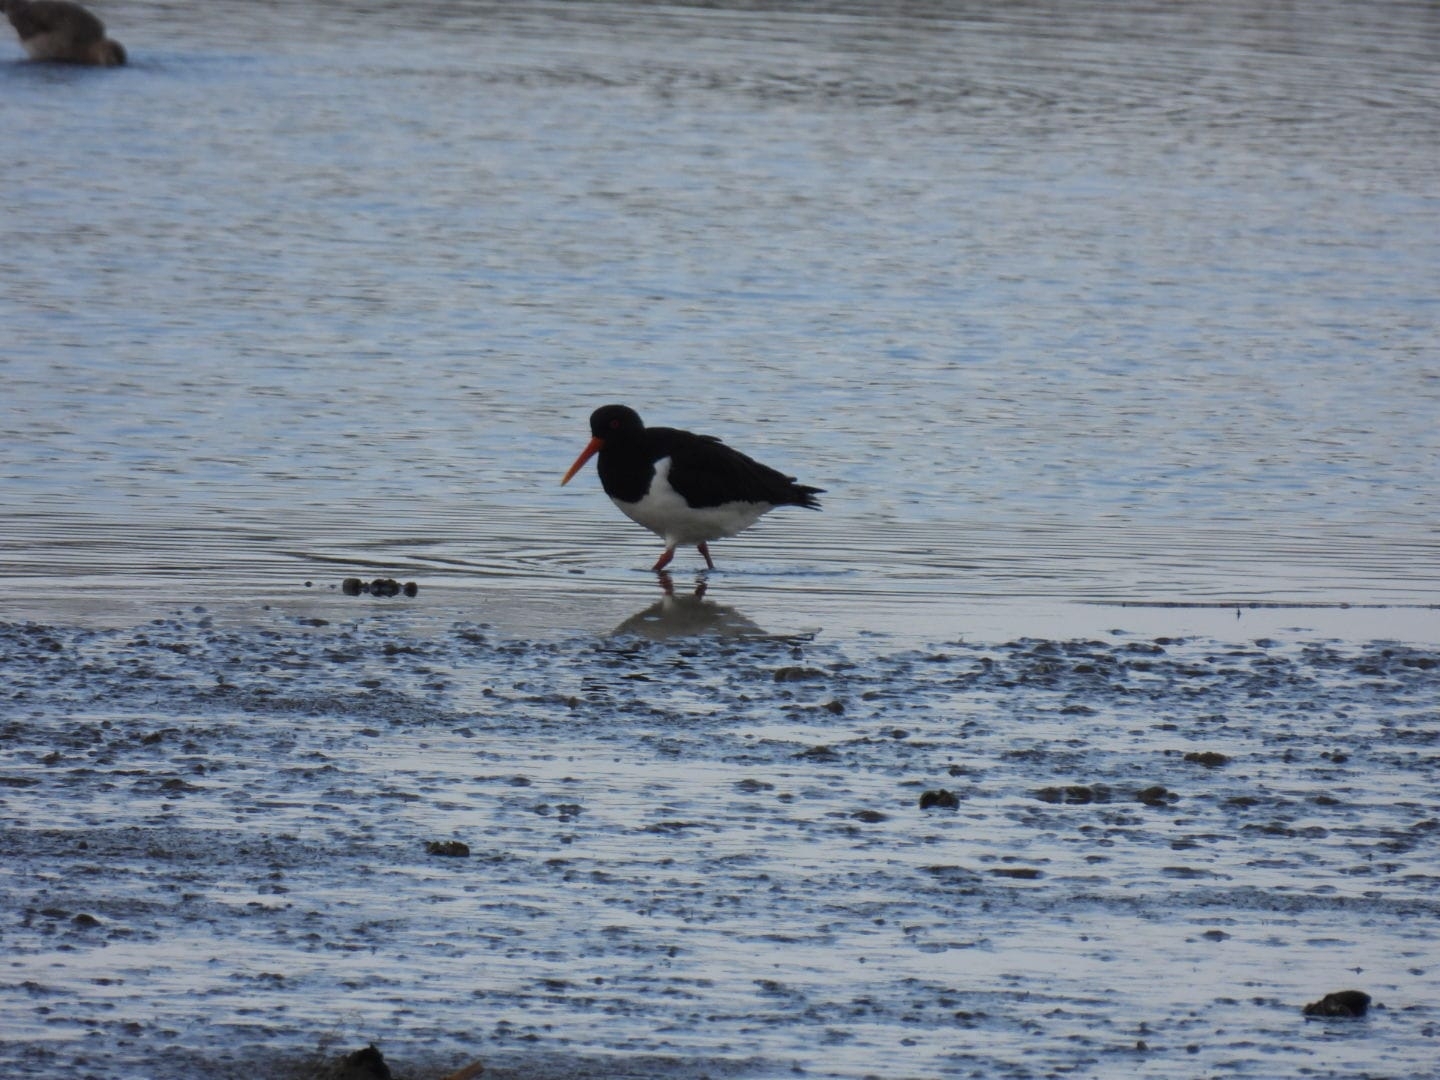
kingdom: Animalia
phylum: Chordata
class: Aves
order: Charadriiformes
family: Haematopodidae
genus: Haematopus
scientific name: Haematopus ostralegus
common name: Eurasian oystercatcher
